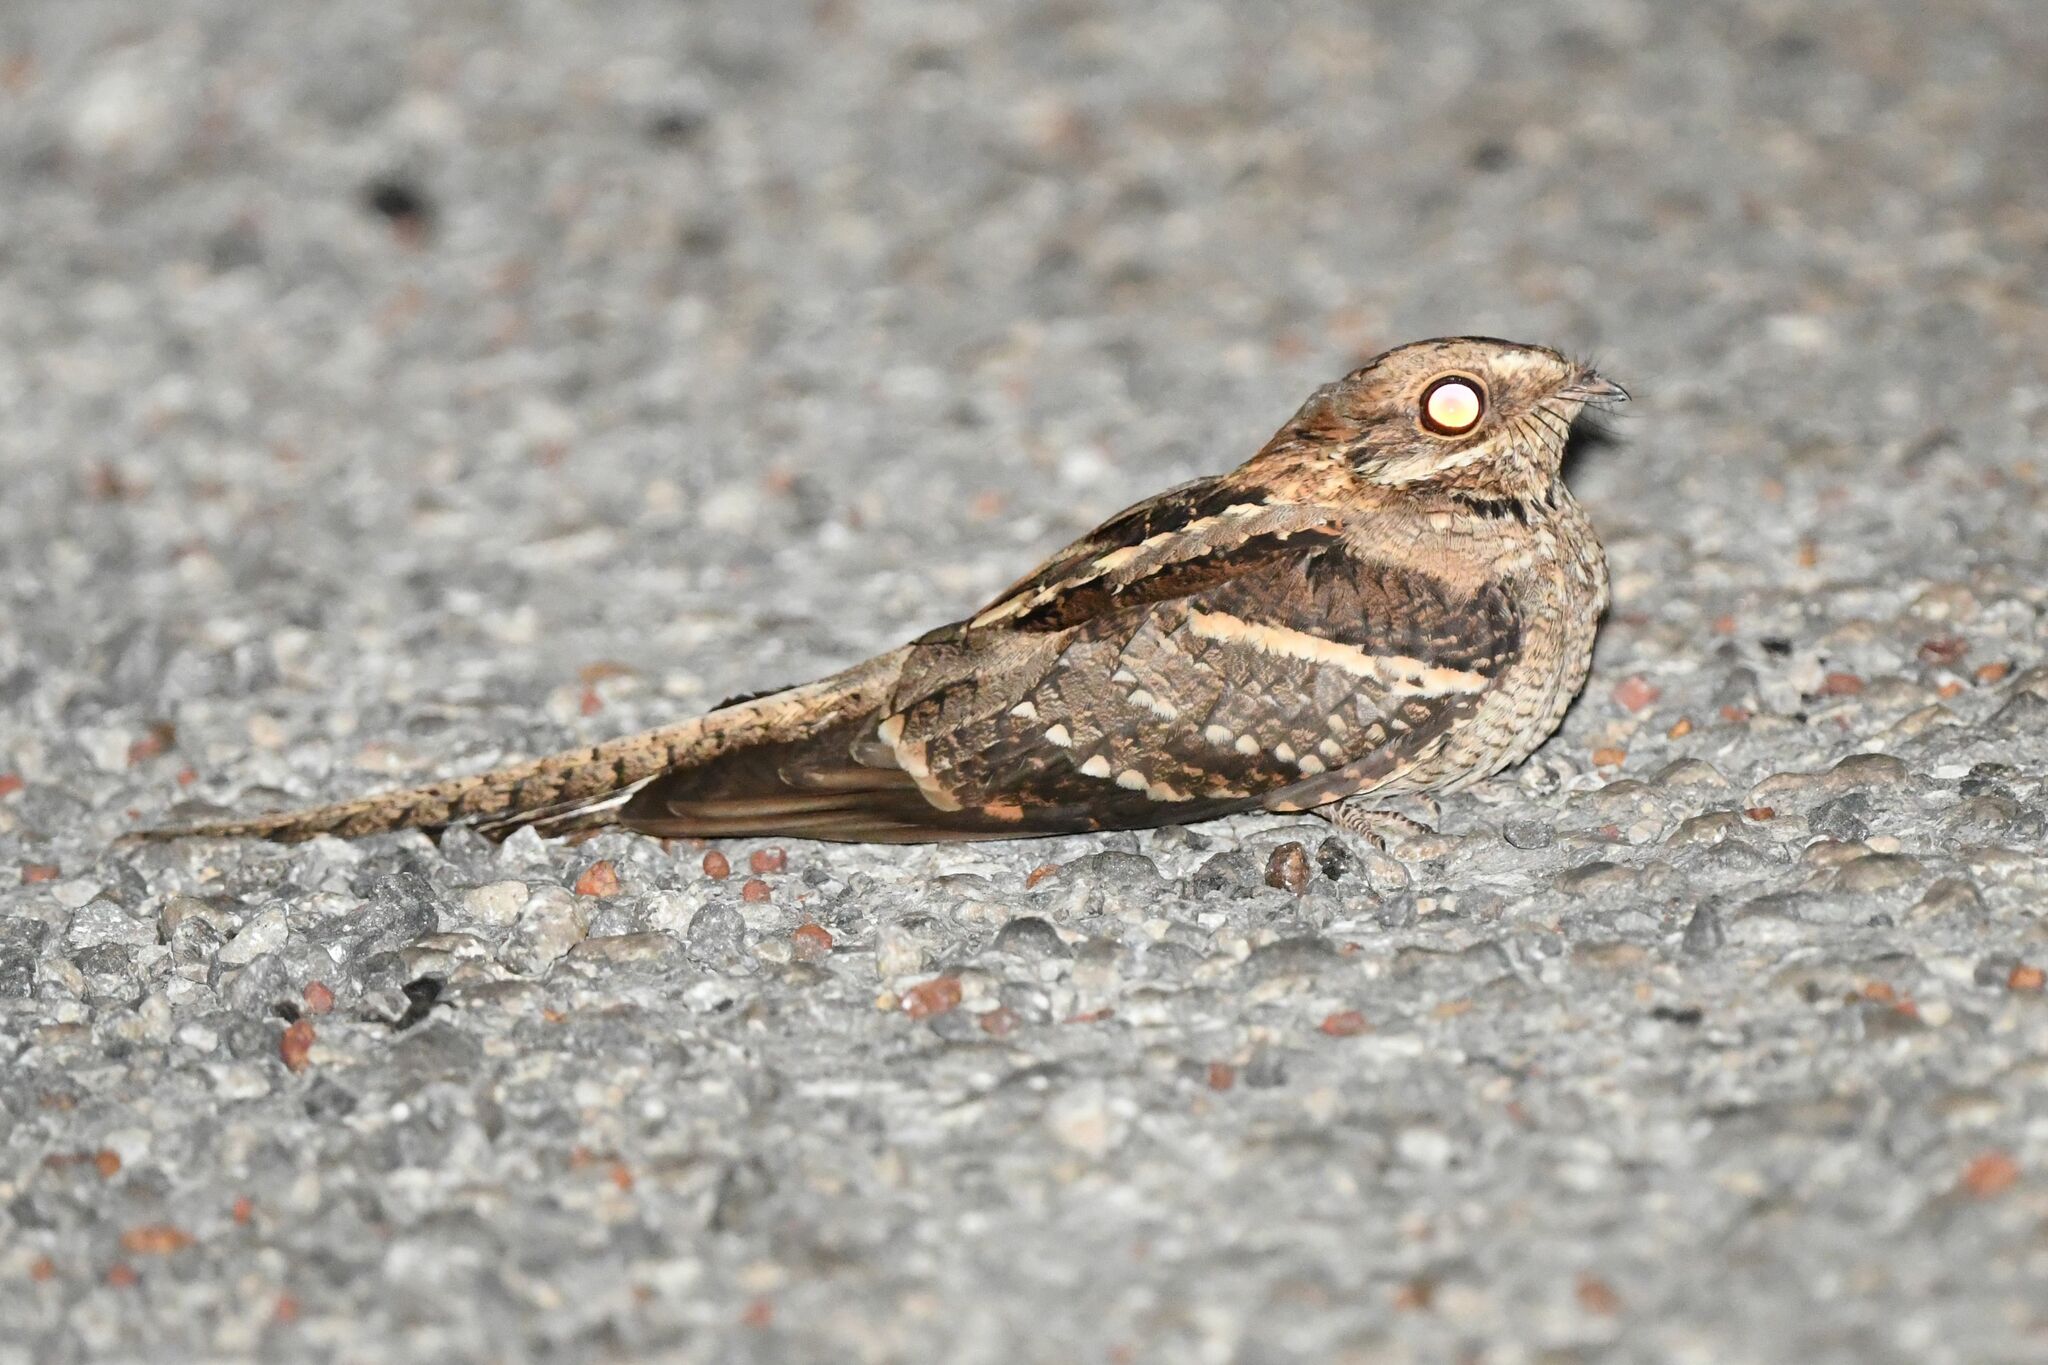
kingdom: Animalia
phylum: Chordata
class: Aves
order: Caprimulgiformes
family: Caprimulgidae
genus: Caprimulgus
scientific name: Caprimulgus climacurus
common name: Long-tailed nightjar
